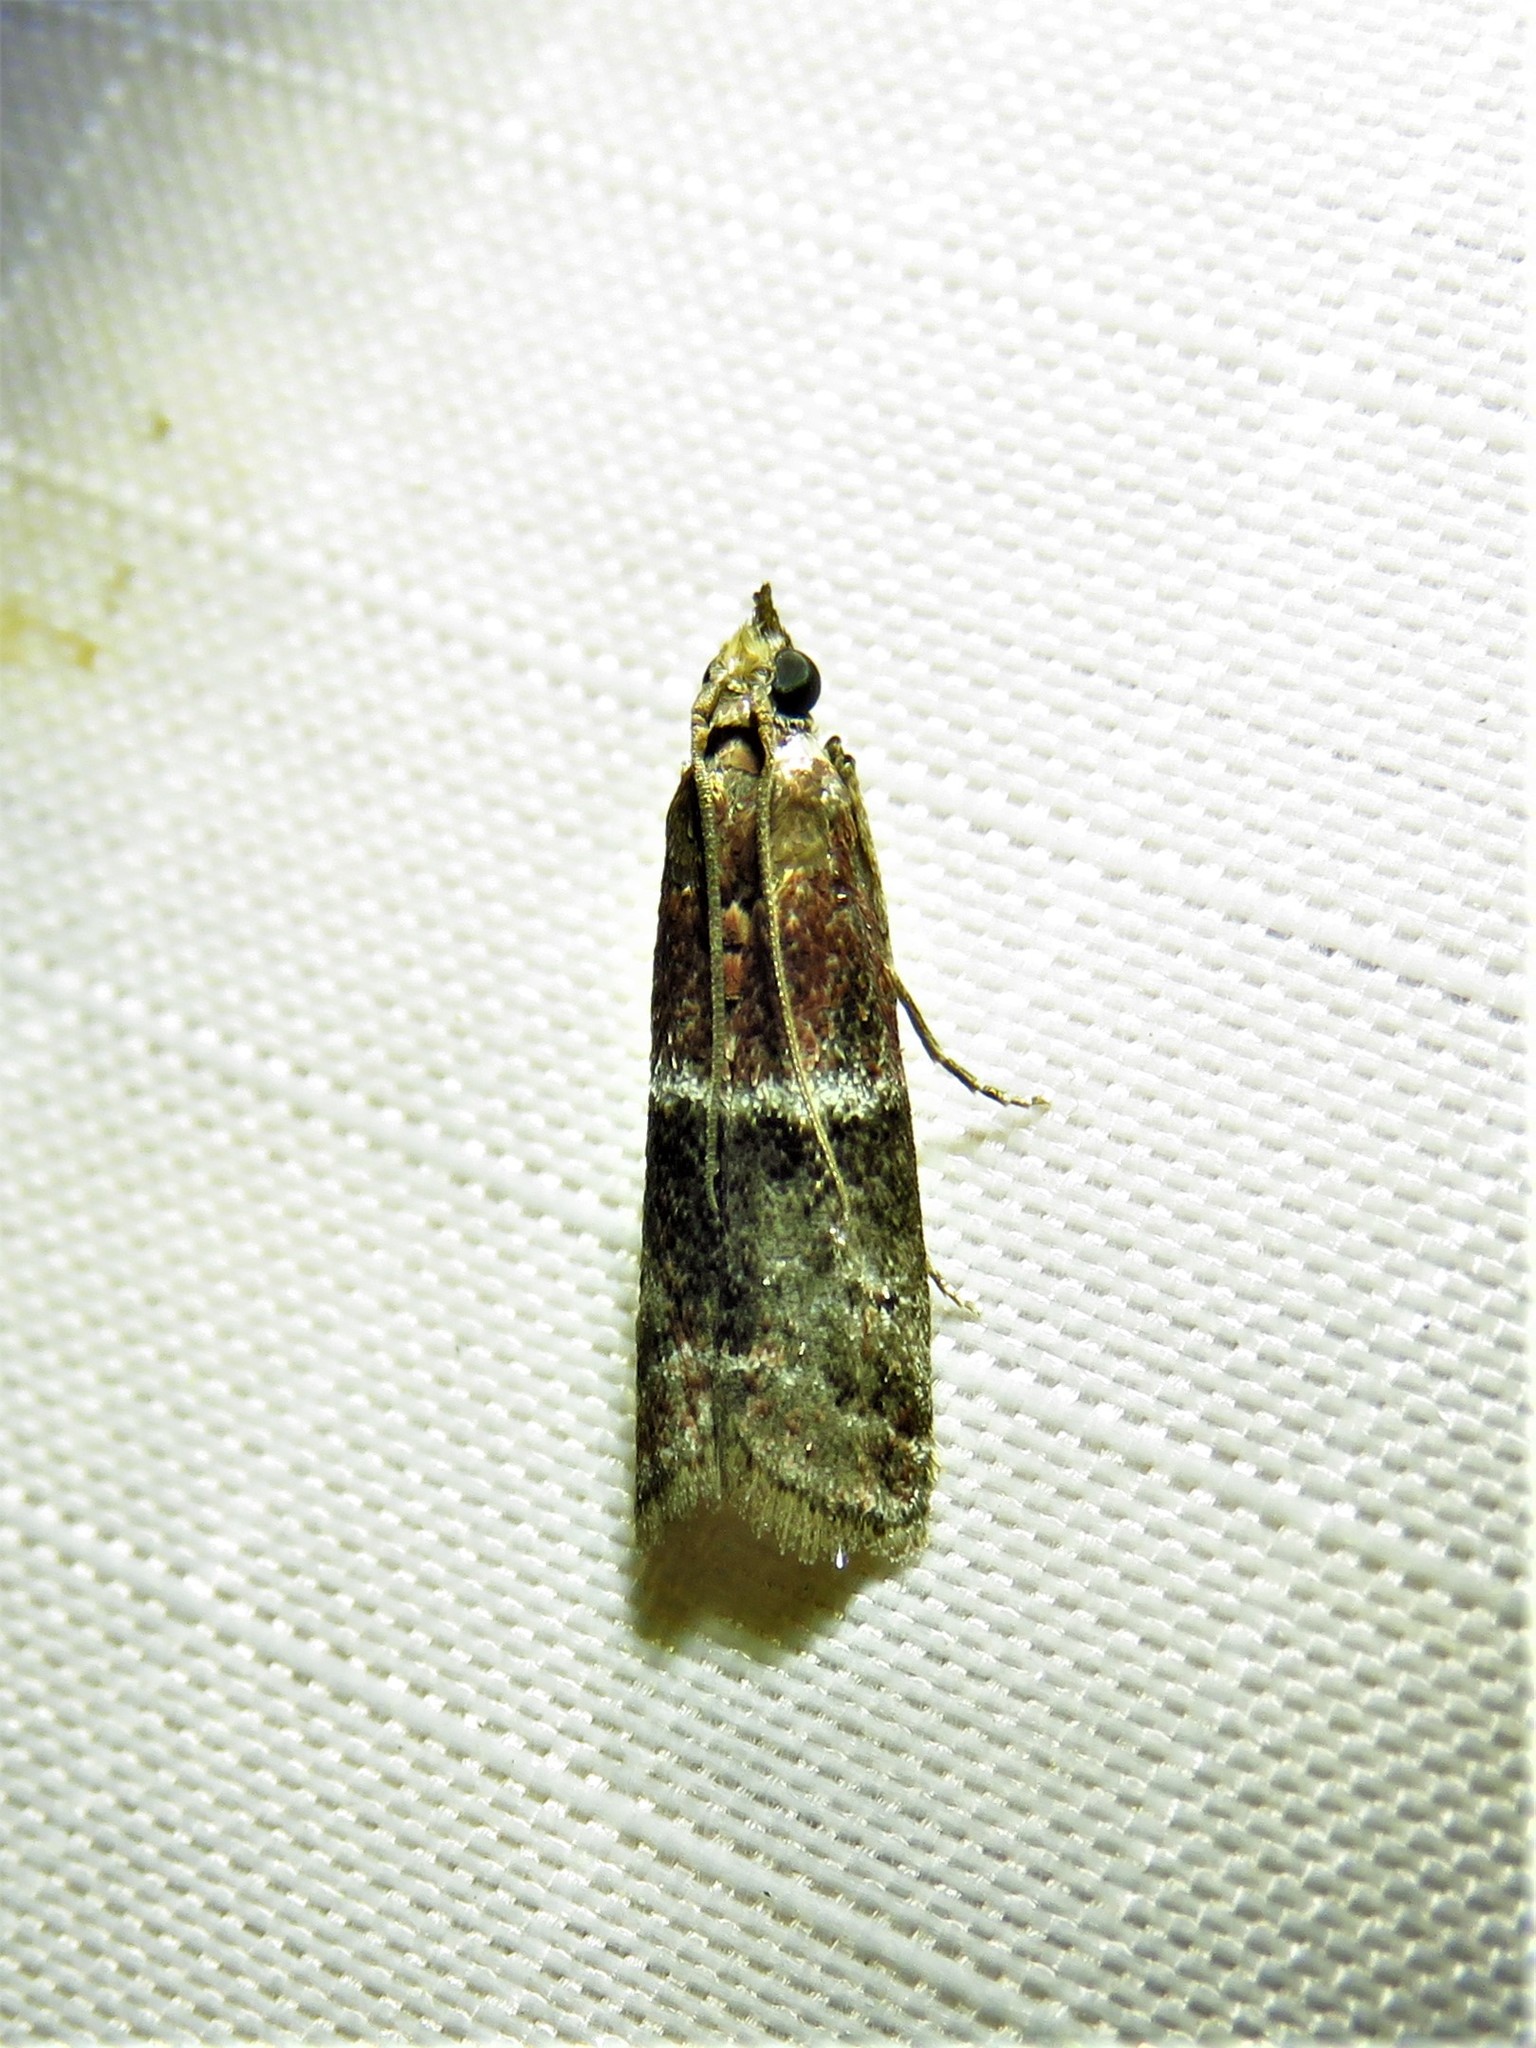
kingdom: Animalia
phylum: Arthropoda
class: Insecta
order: Lepidoptera
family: Pyralidae
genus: Moodna
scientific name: Moodna ostrinella
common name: Darker moodna moth
